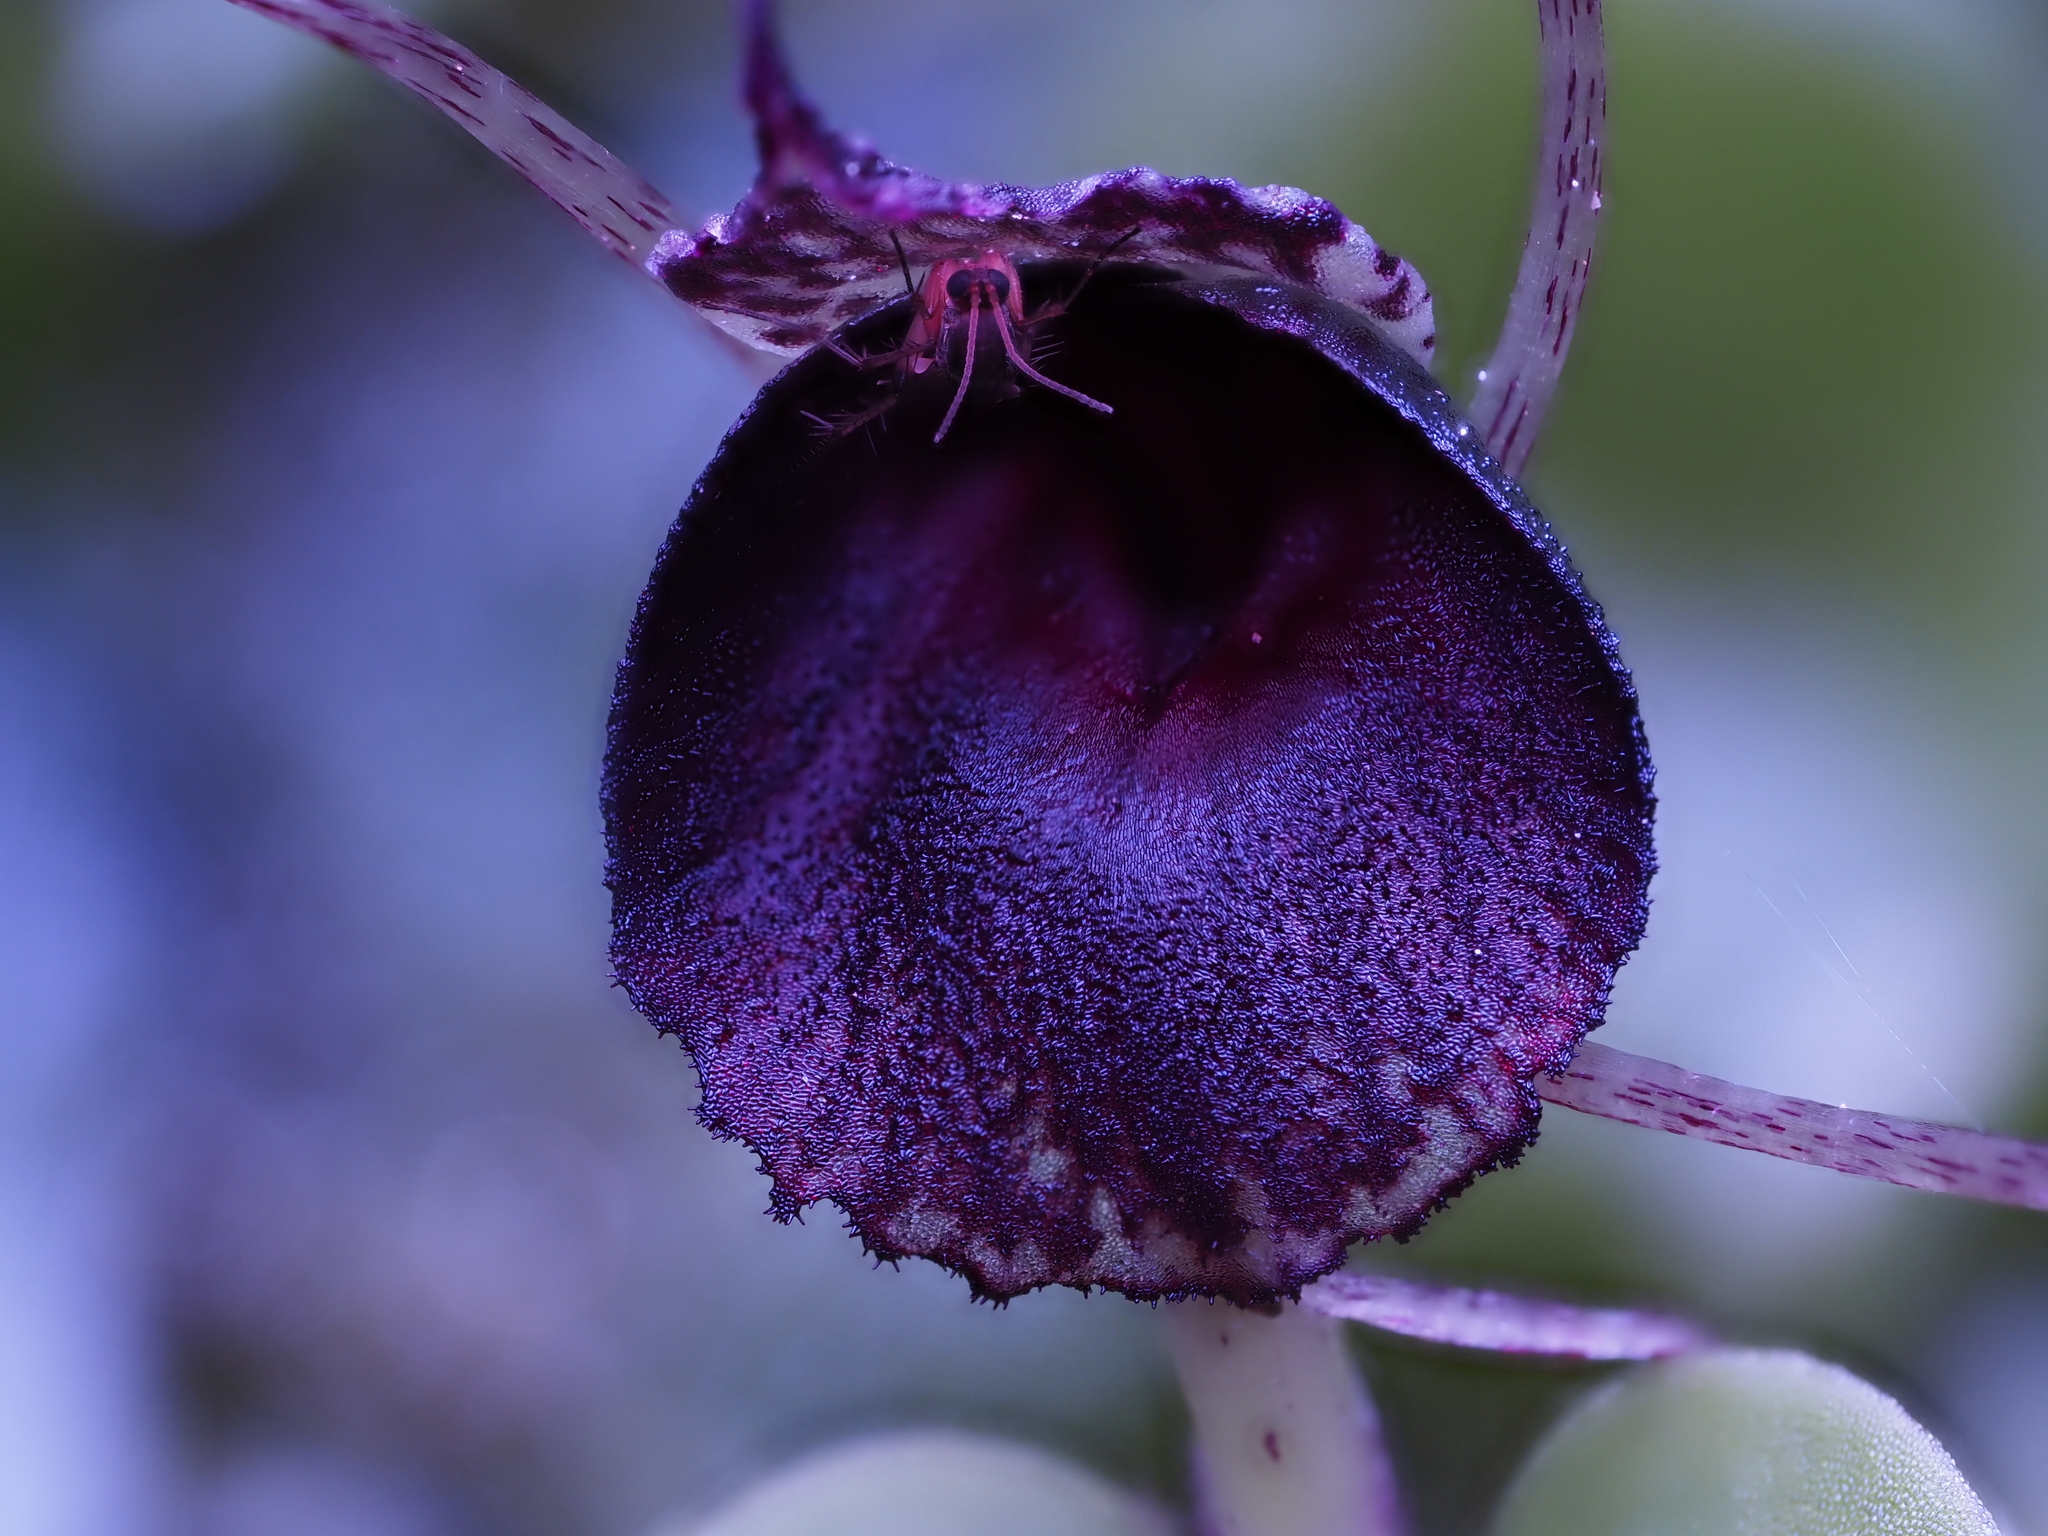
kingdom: Plantae
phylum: Tracheophyta
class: Liliopsida
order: Asparagales
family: Orchidaceae
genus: Corybas
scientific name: Corybas iridescens
